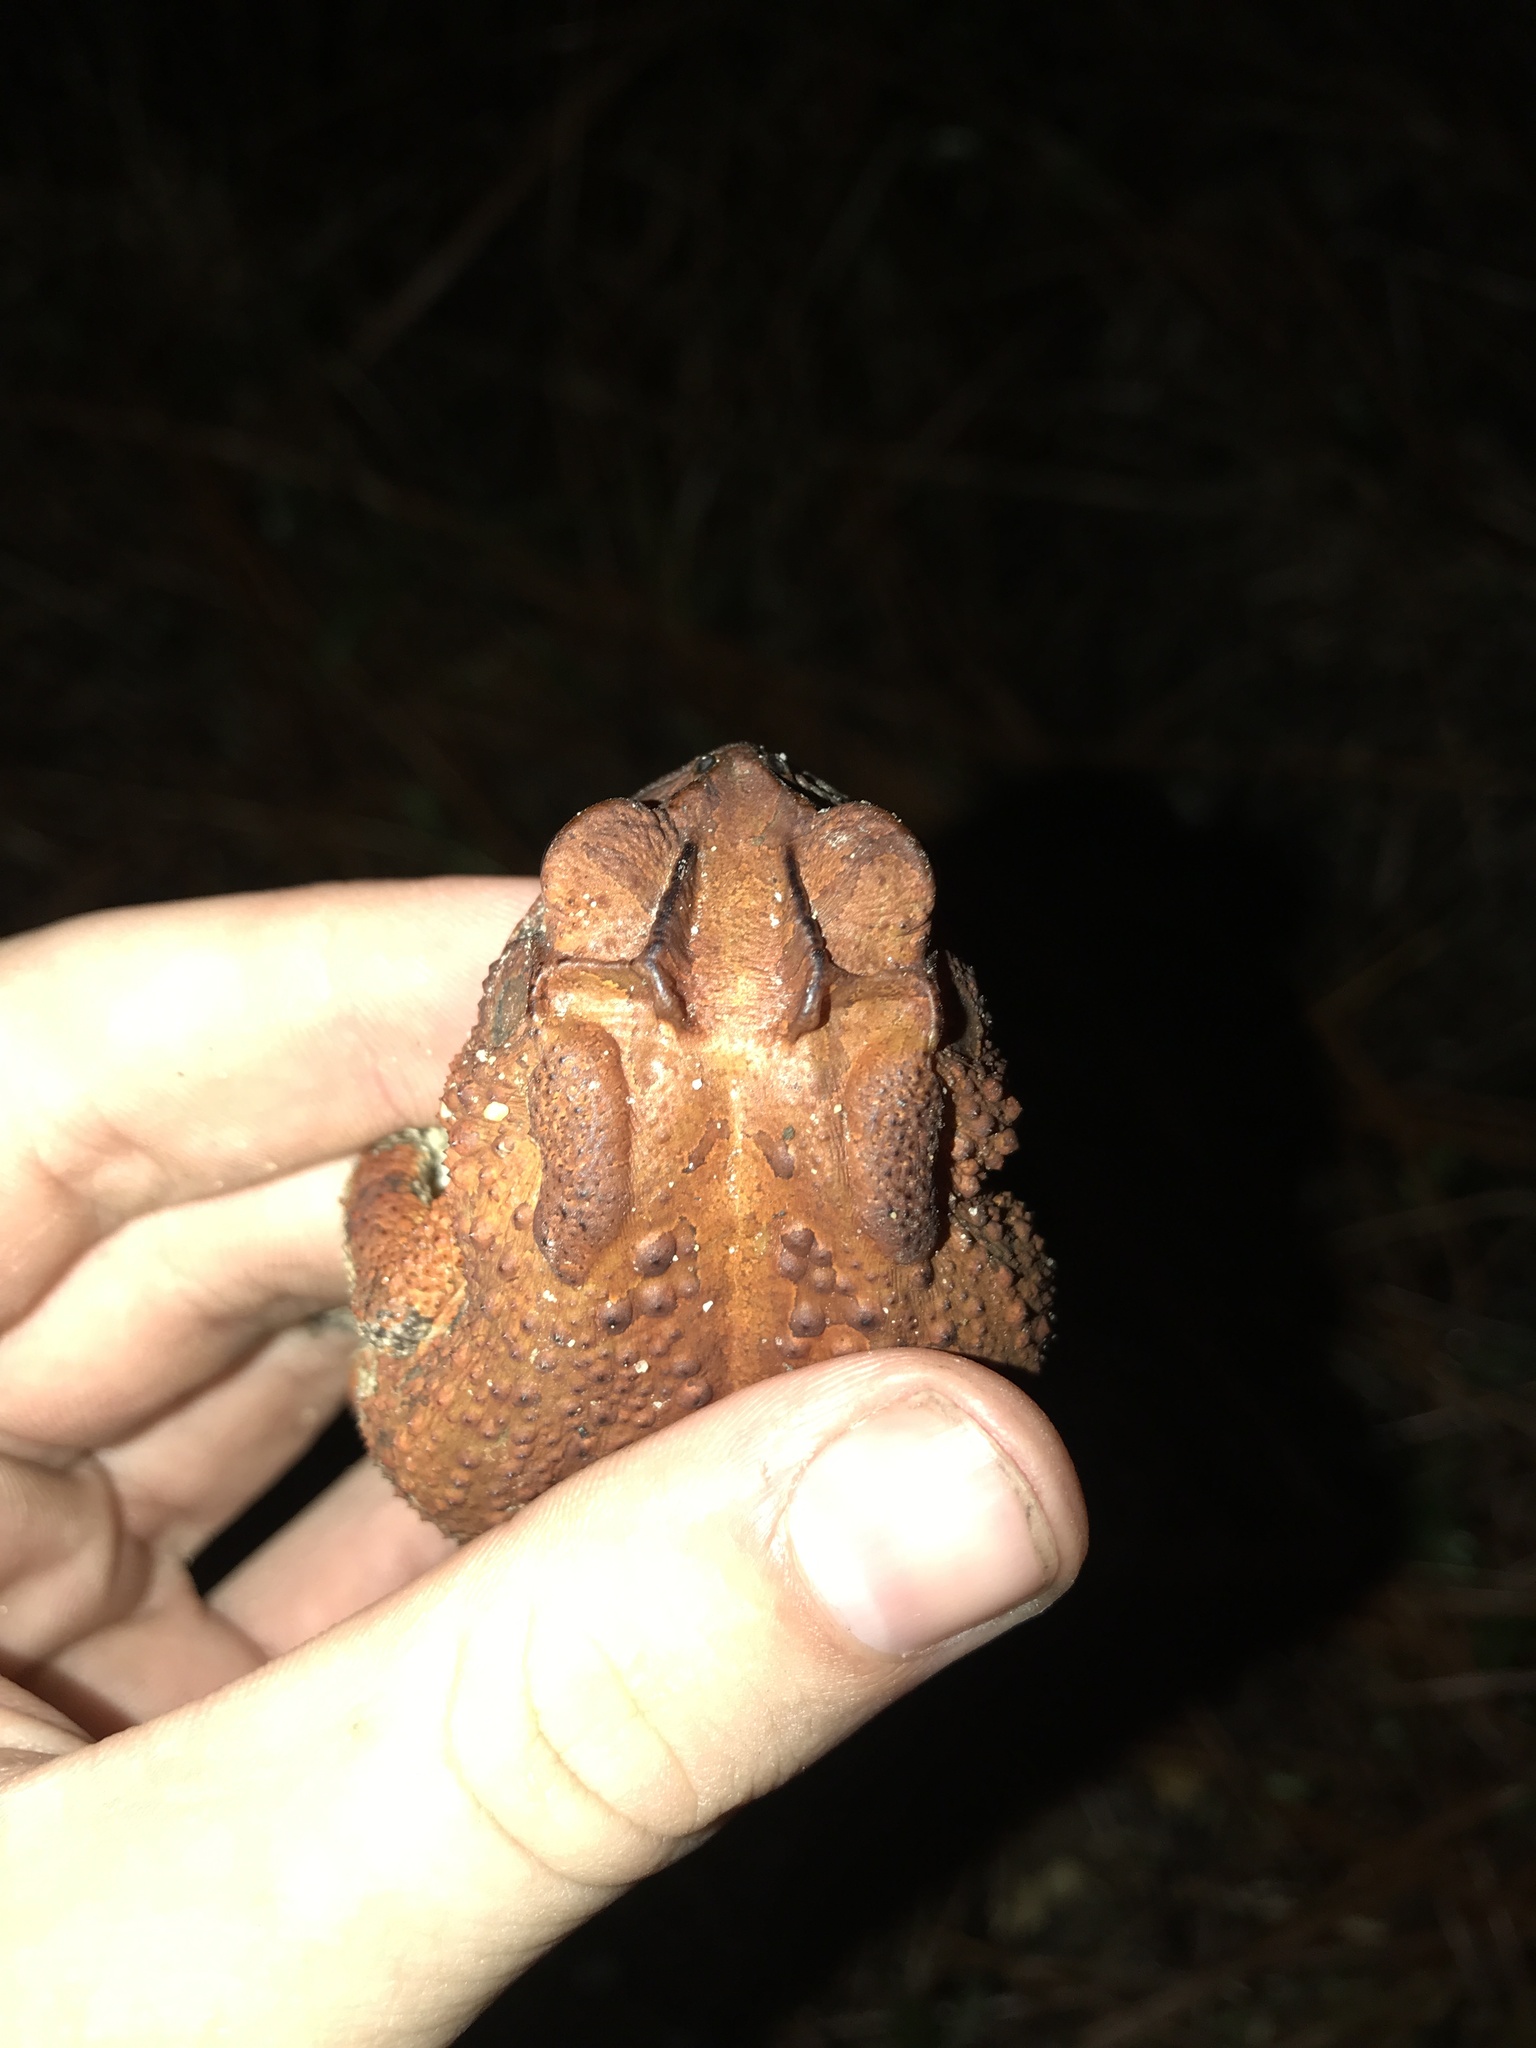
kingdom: Animalia
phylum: Chordata
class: Amphibia
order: Anura
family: Bufonidae
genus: Anaxyrus
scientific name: Anaxyrus terrestris
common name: Southern toad
